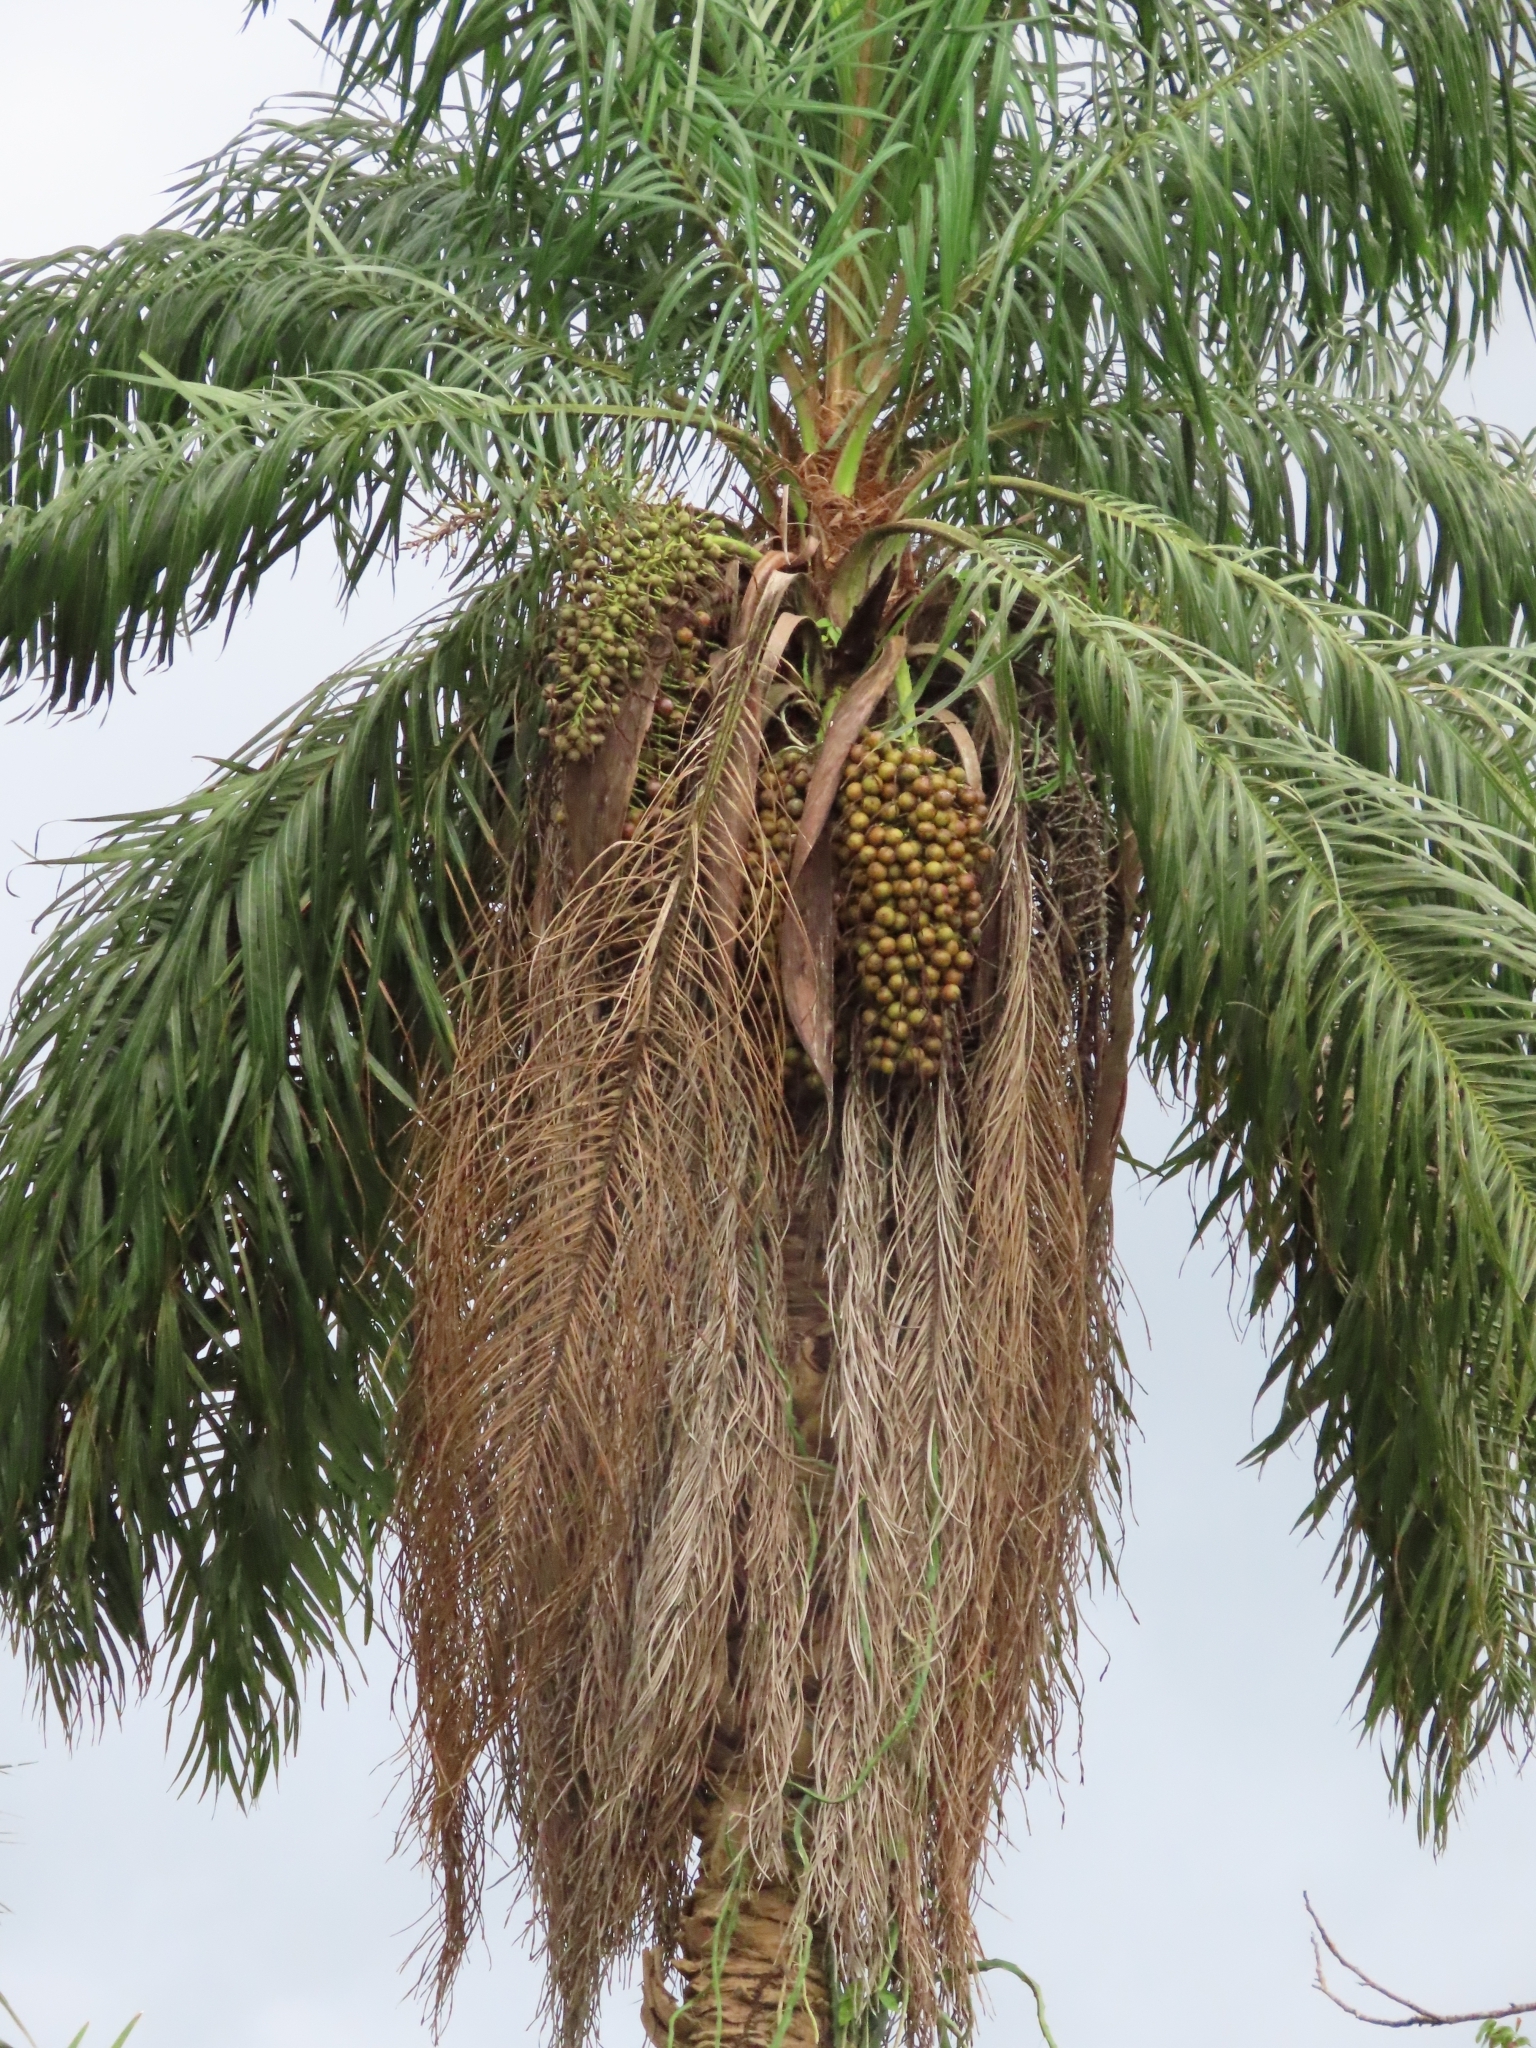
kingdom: Plantae
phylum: Tracheophyta
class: Liliopsida
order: Arecales
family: Arecaceae
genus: Acrocomia
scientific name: Acrocomia aculeata
